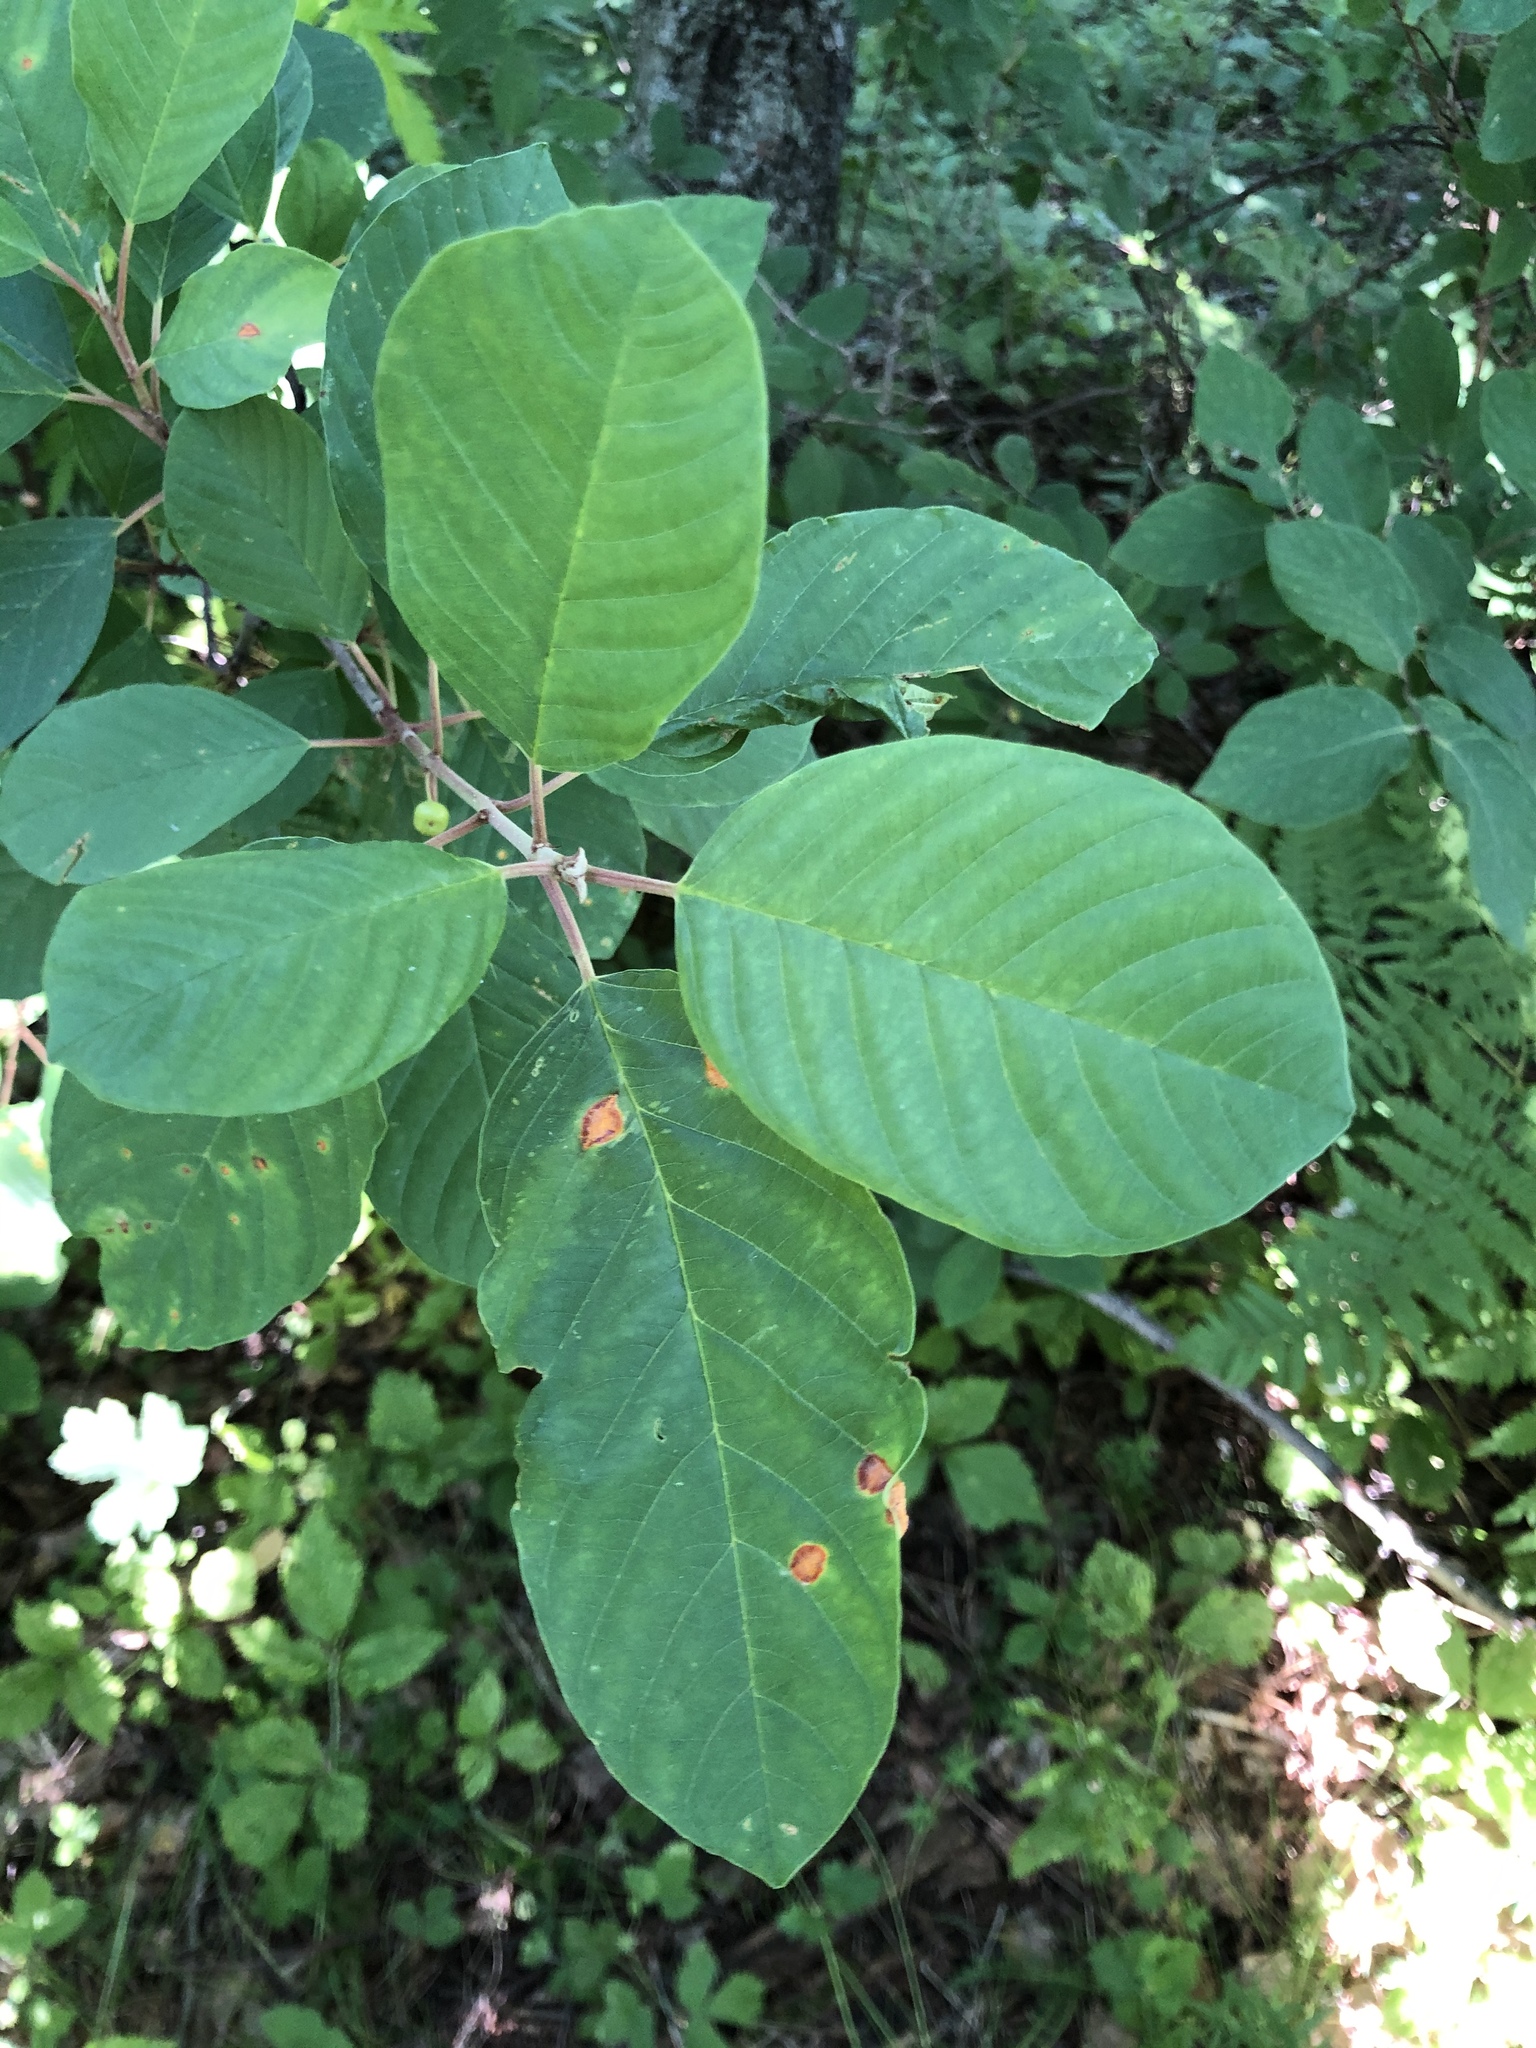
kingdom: Plantae
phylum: Tracheophyta
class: Magnoliopsida
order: Rosales
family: Rhamnaceae
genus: Frangula
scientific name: Frangula alnus
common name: Alder buckthorn
